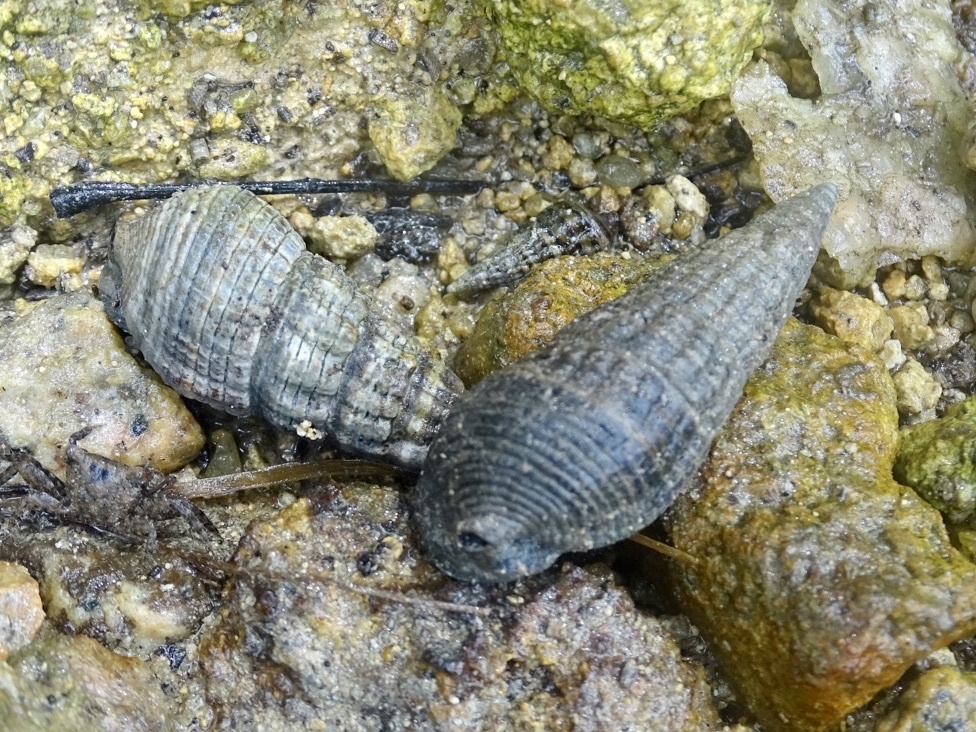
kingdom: Animalia
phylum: Mollusca
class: Gastropoda
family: Potamididae
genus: Terebralia
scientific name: Terebralia sulcata
